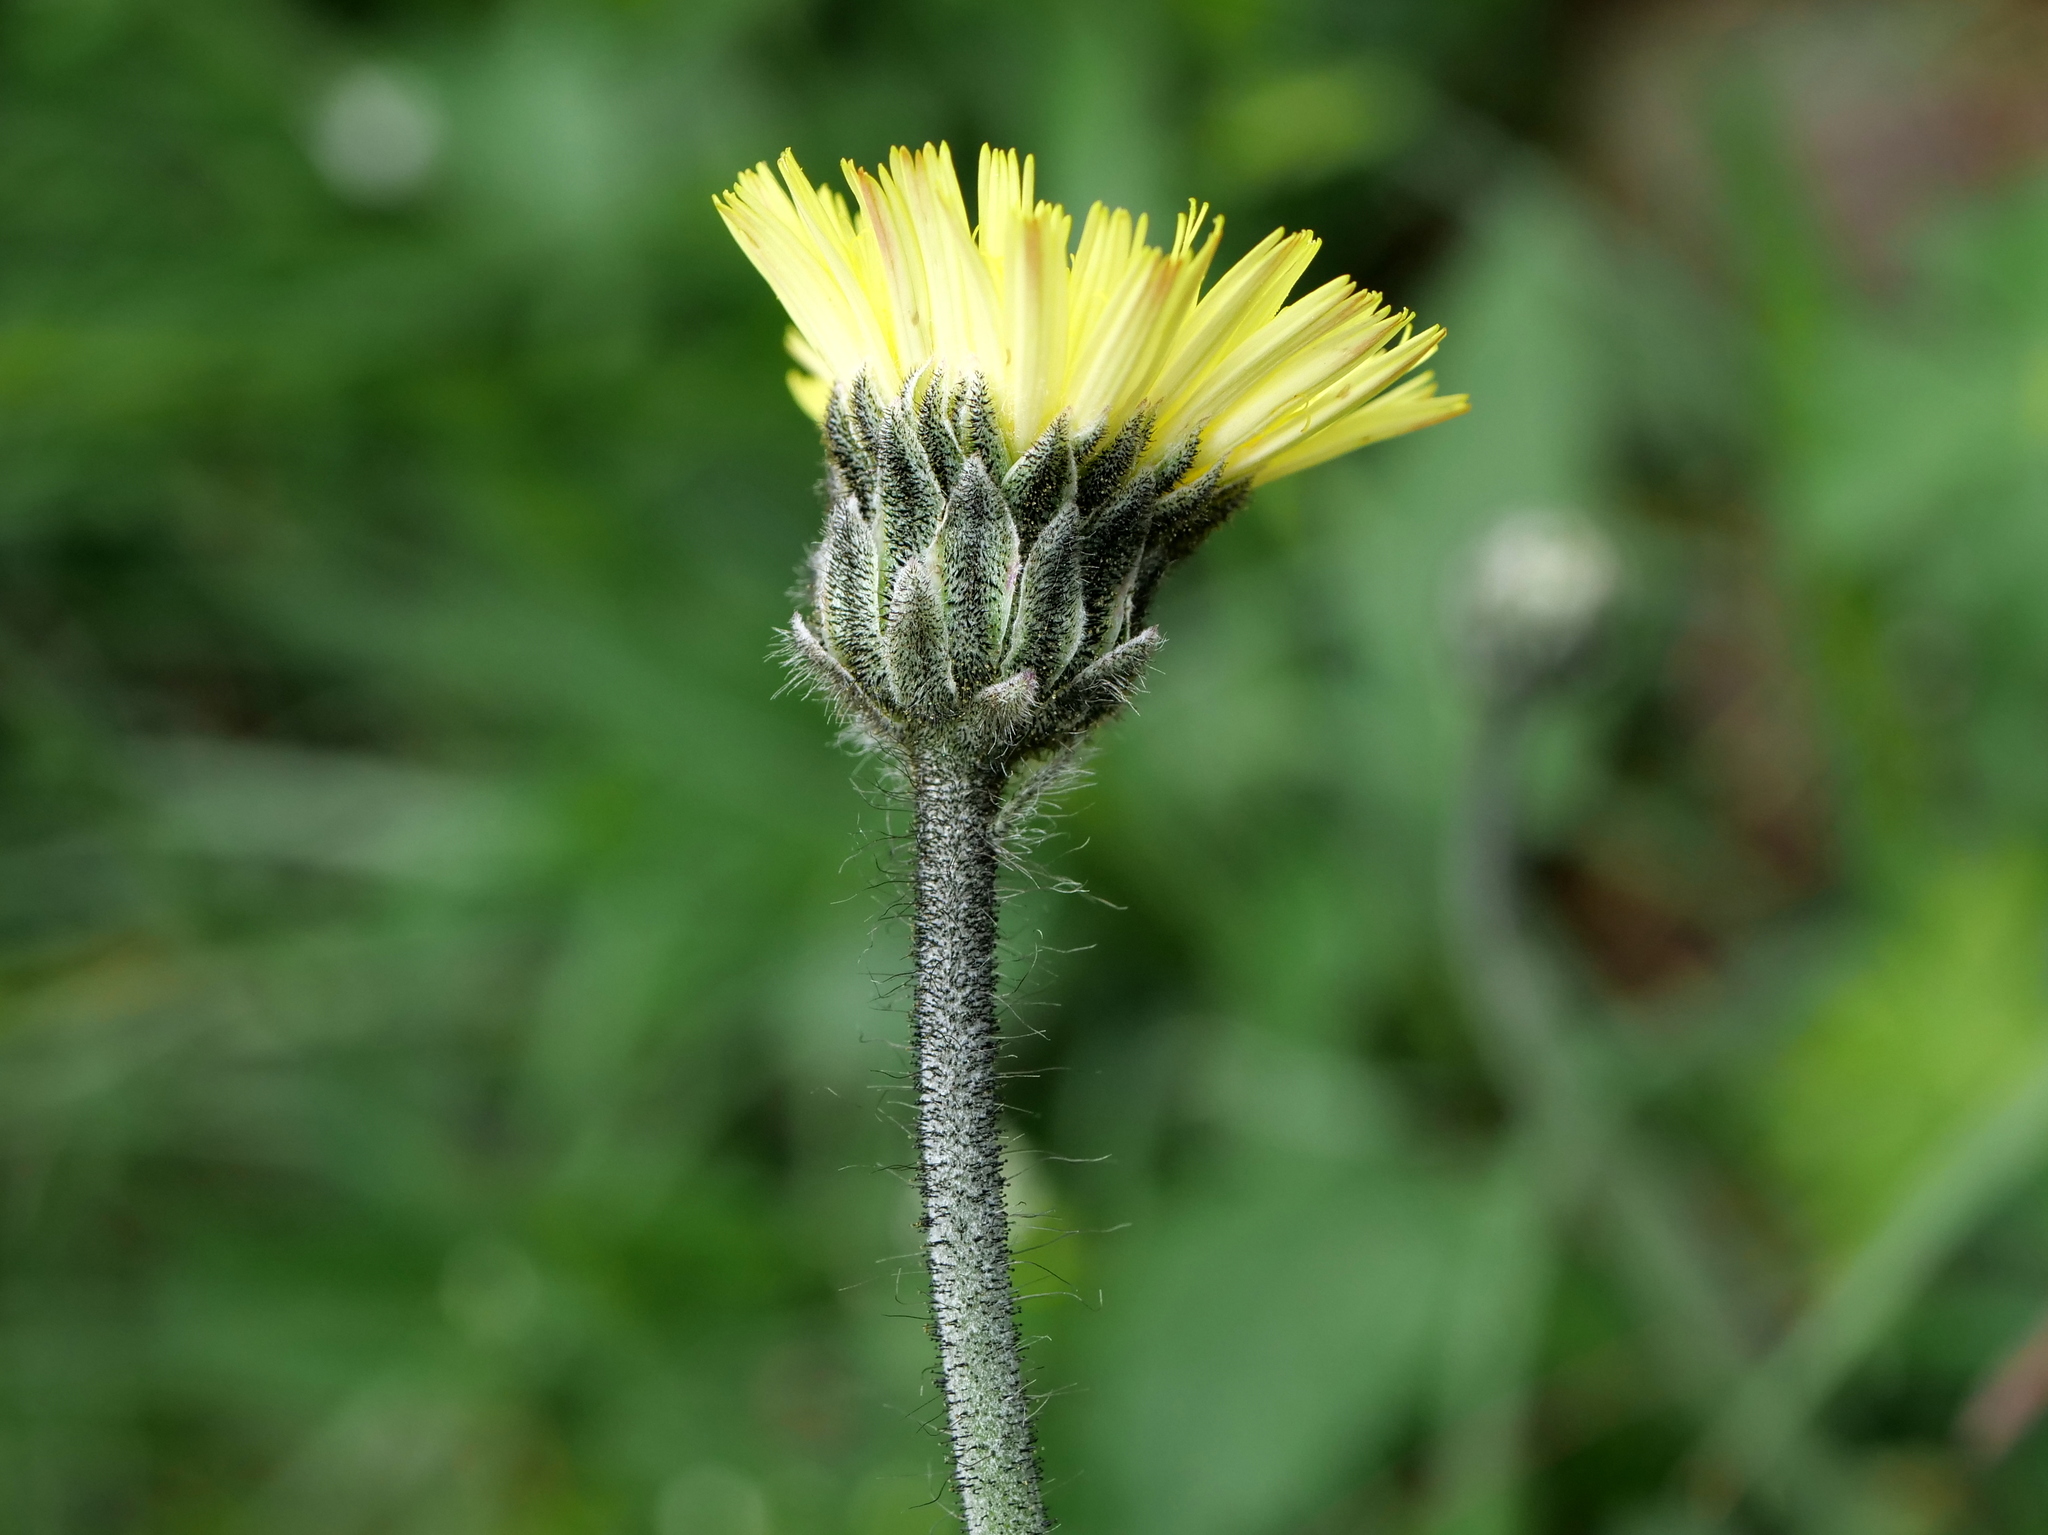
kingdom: Plantae
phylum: Tracheophyta
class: Magnoliopsida
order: Asterales
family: Asteraceae
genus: Pilosella
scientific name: Pilosella hoppeana
